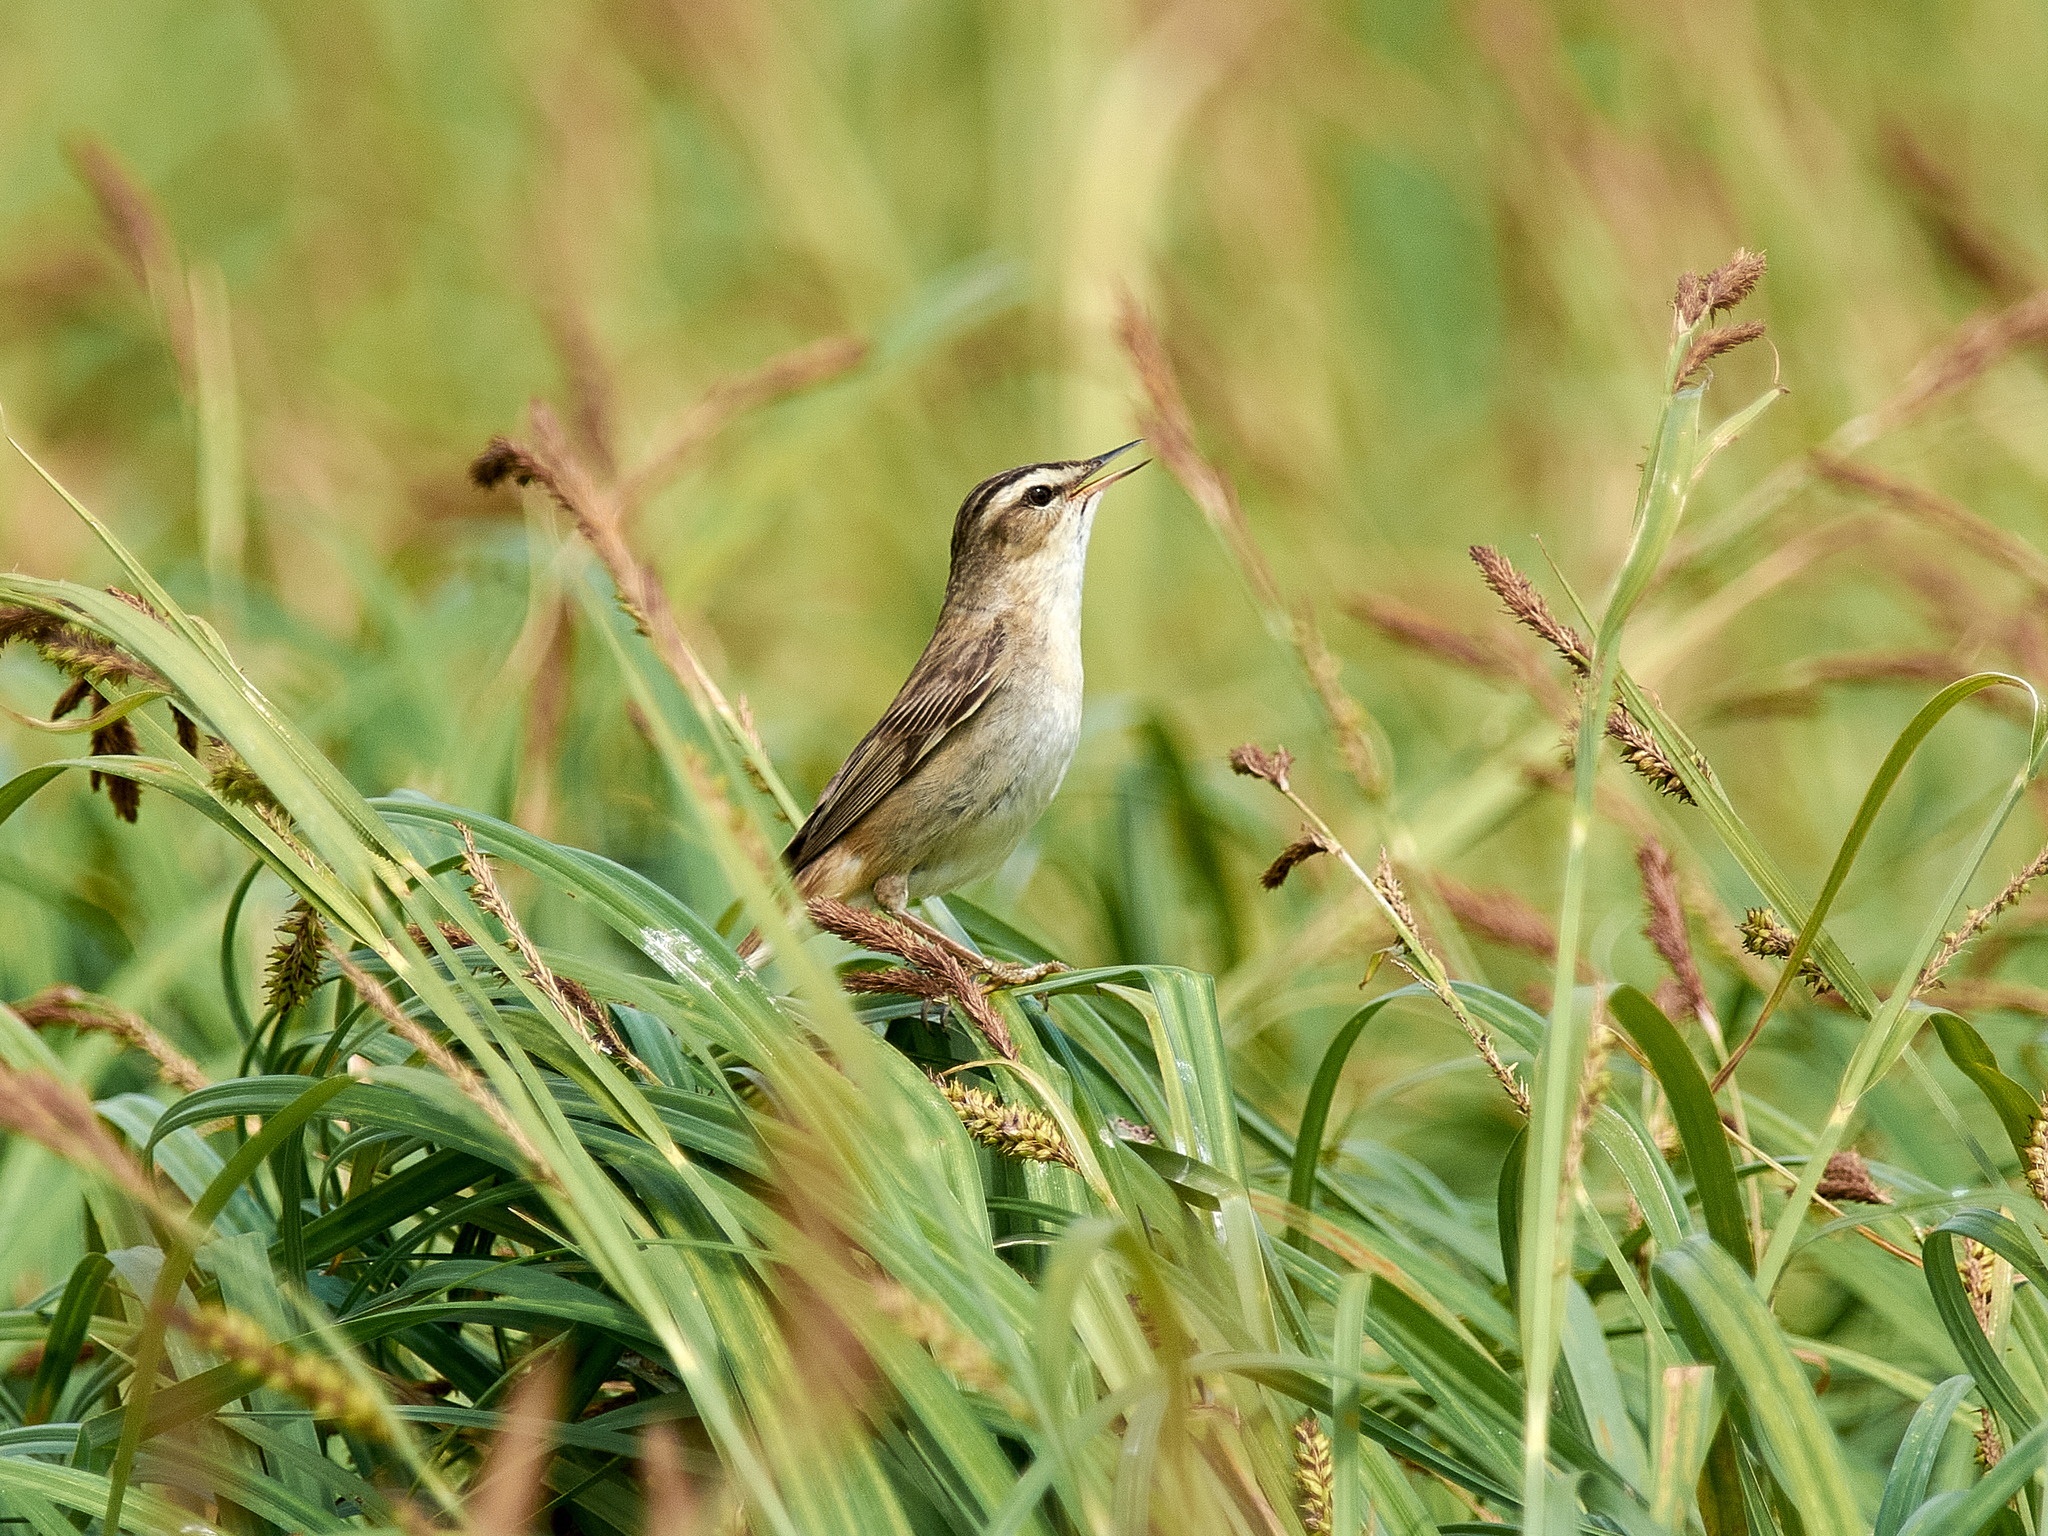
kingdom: Animalia
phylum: Chordata
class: Aves
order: Passeriformes
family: Acrocephalidae
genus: Acrocephalus
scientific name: Acrocephalus schoenobaenus
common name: Sedge warbler
